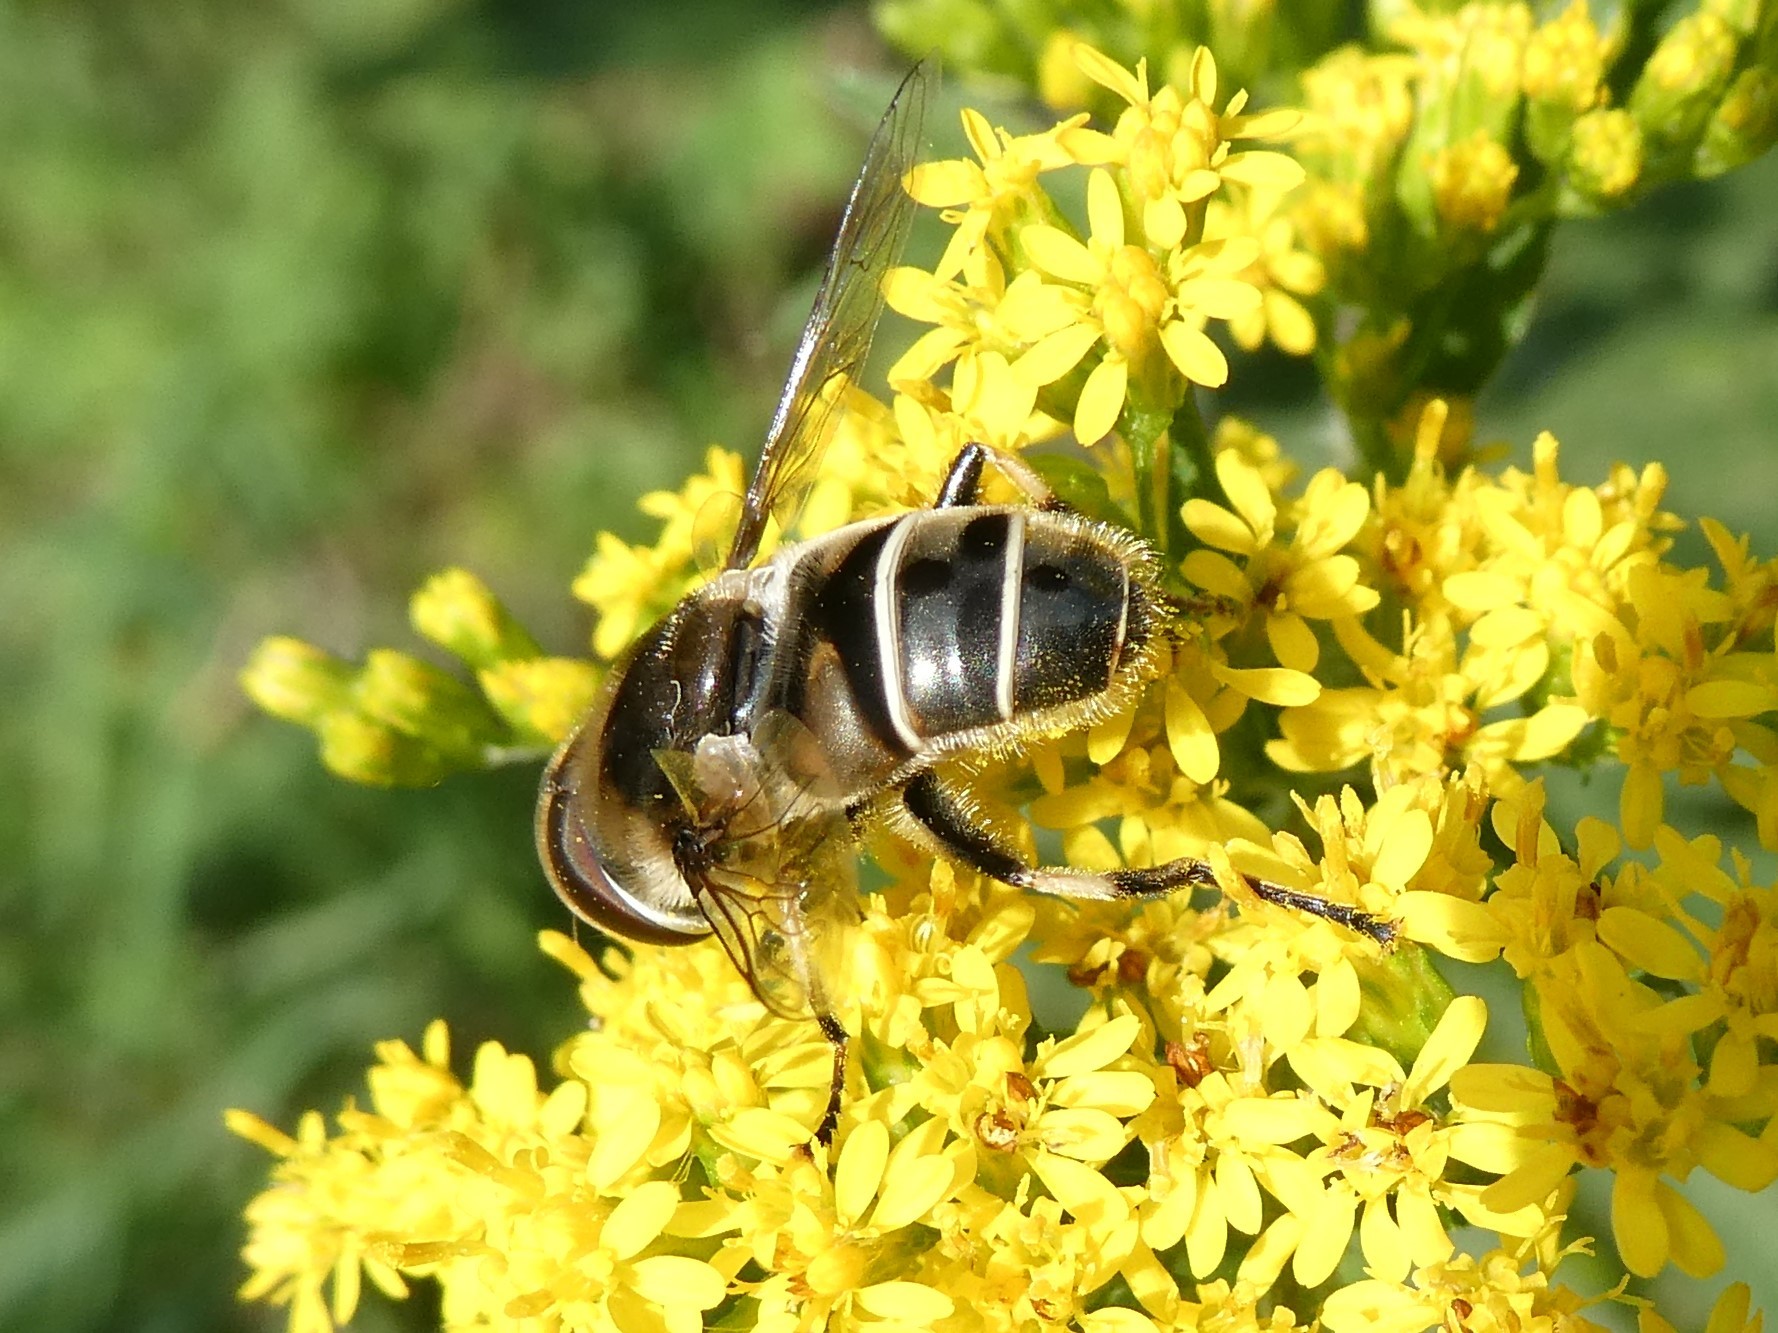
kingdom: Animalia
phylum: Arthropoda
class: Insecta
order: Diptera
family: Syrphidae
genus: Eristalis
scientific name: Eristalis dimidiata
